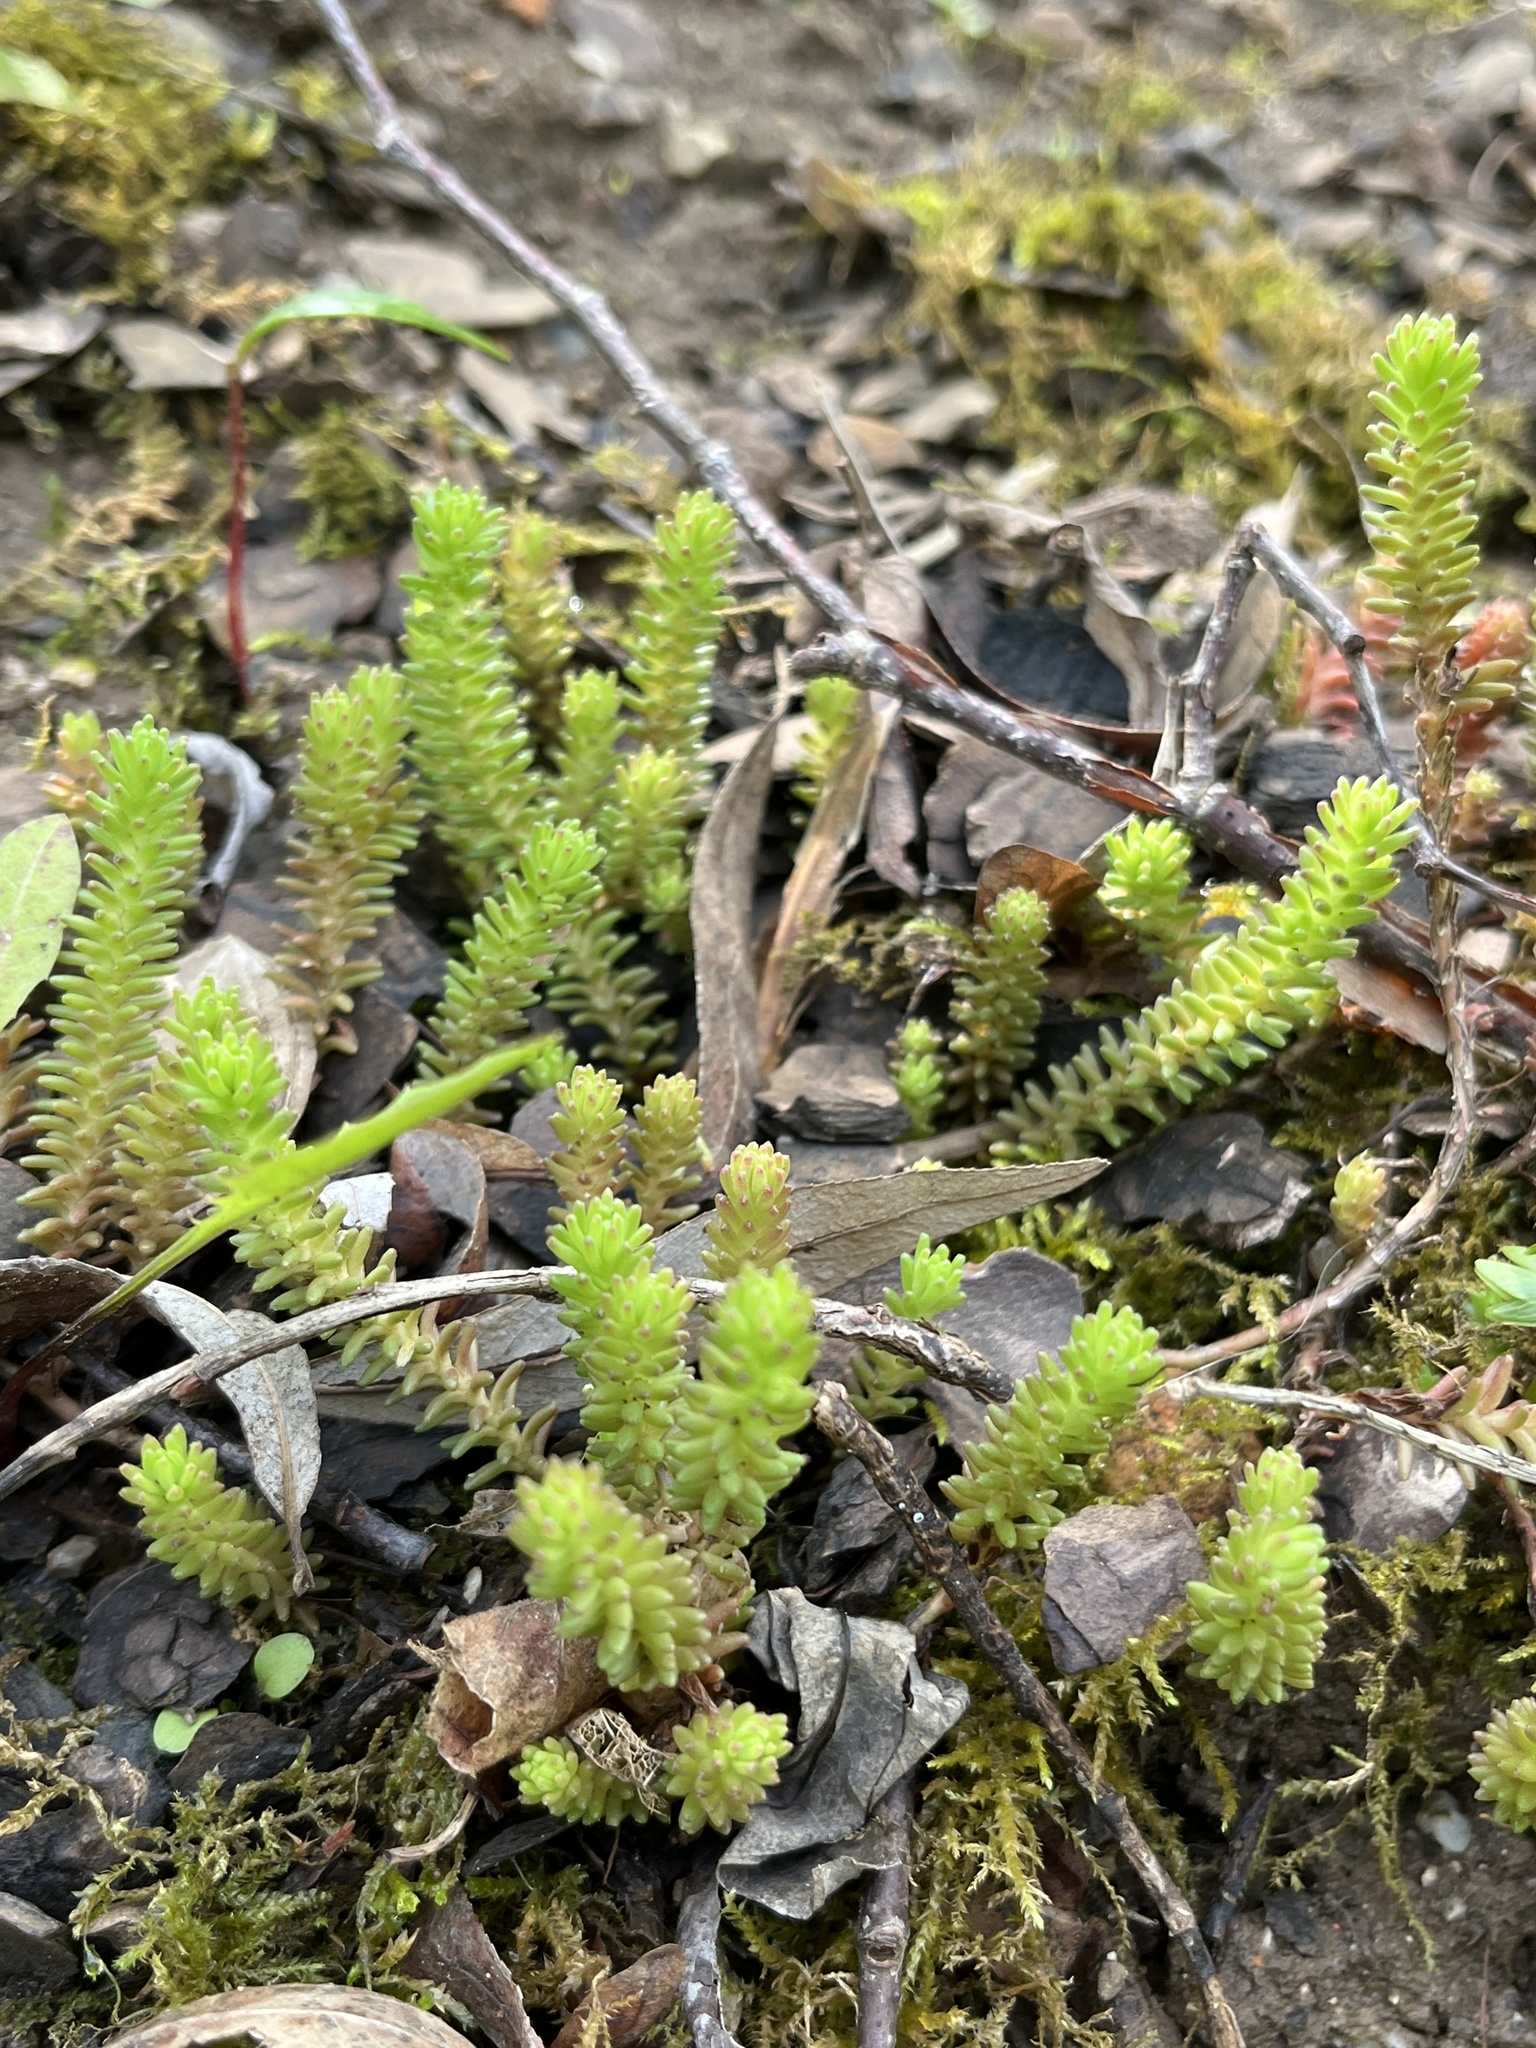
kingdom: Plantae
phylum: Tracheophyta
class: Magnoliopsida
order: Saxifragales
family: Crassulaceae
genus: Sedum
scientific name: Sedum sexangulare
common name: Tasteless stonecrop
